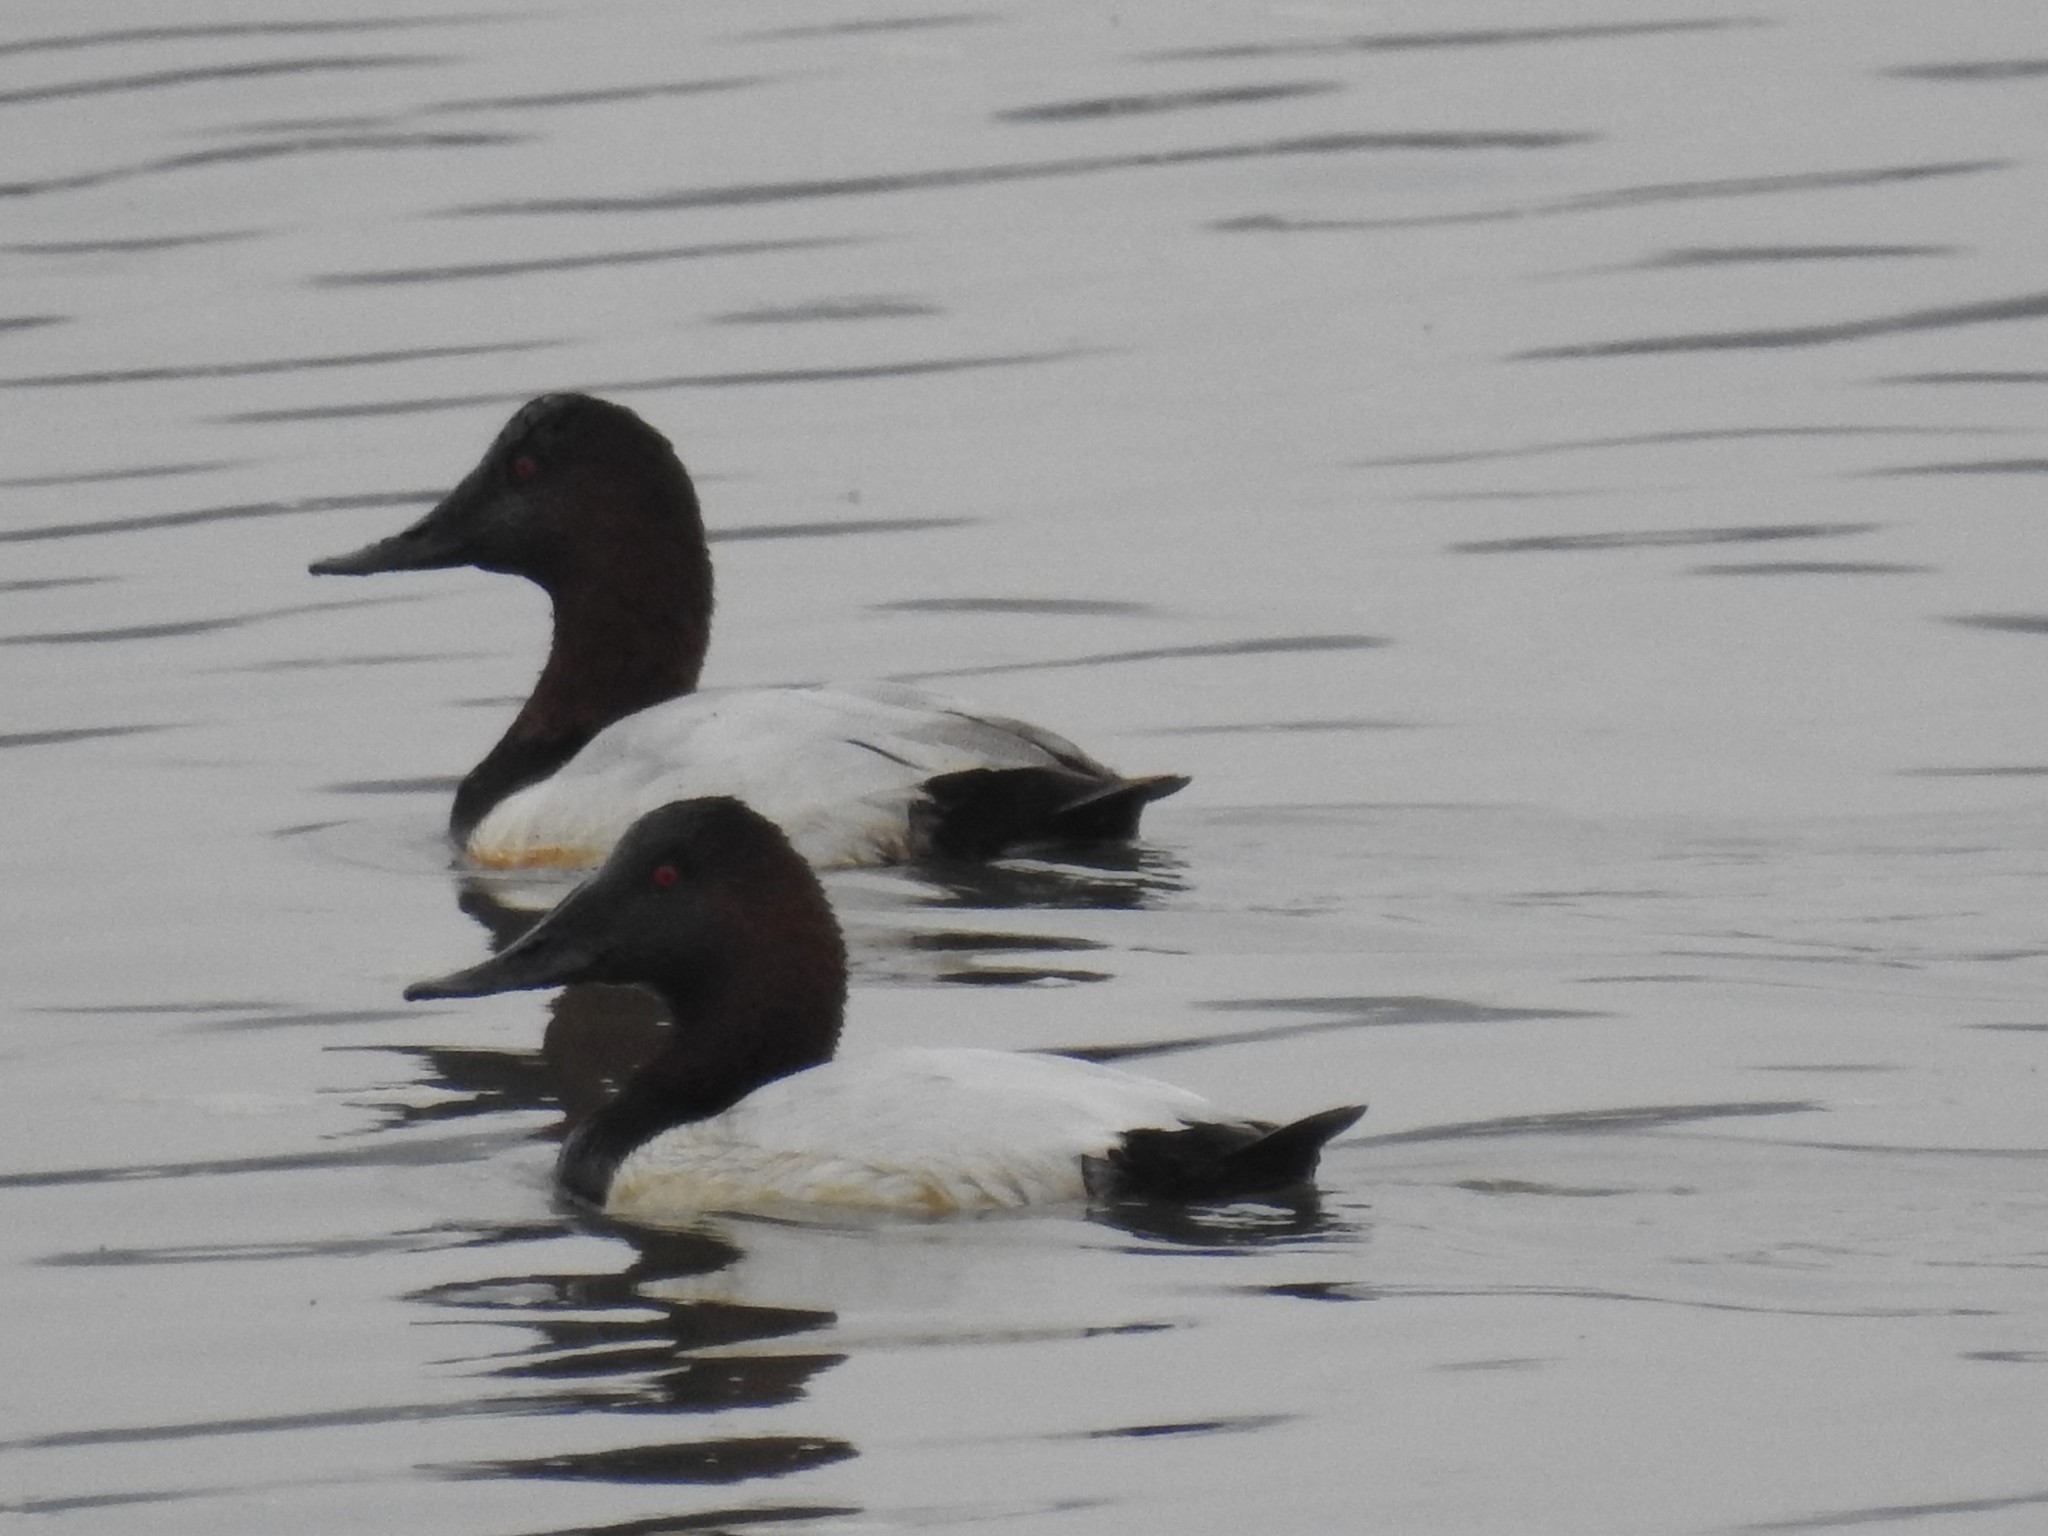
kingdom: Animalia
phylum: Chordata
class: Aves
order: Anseriformes
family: Anatidae
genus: Aythya
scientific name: Aythya valisineria
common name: Canvasback
